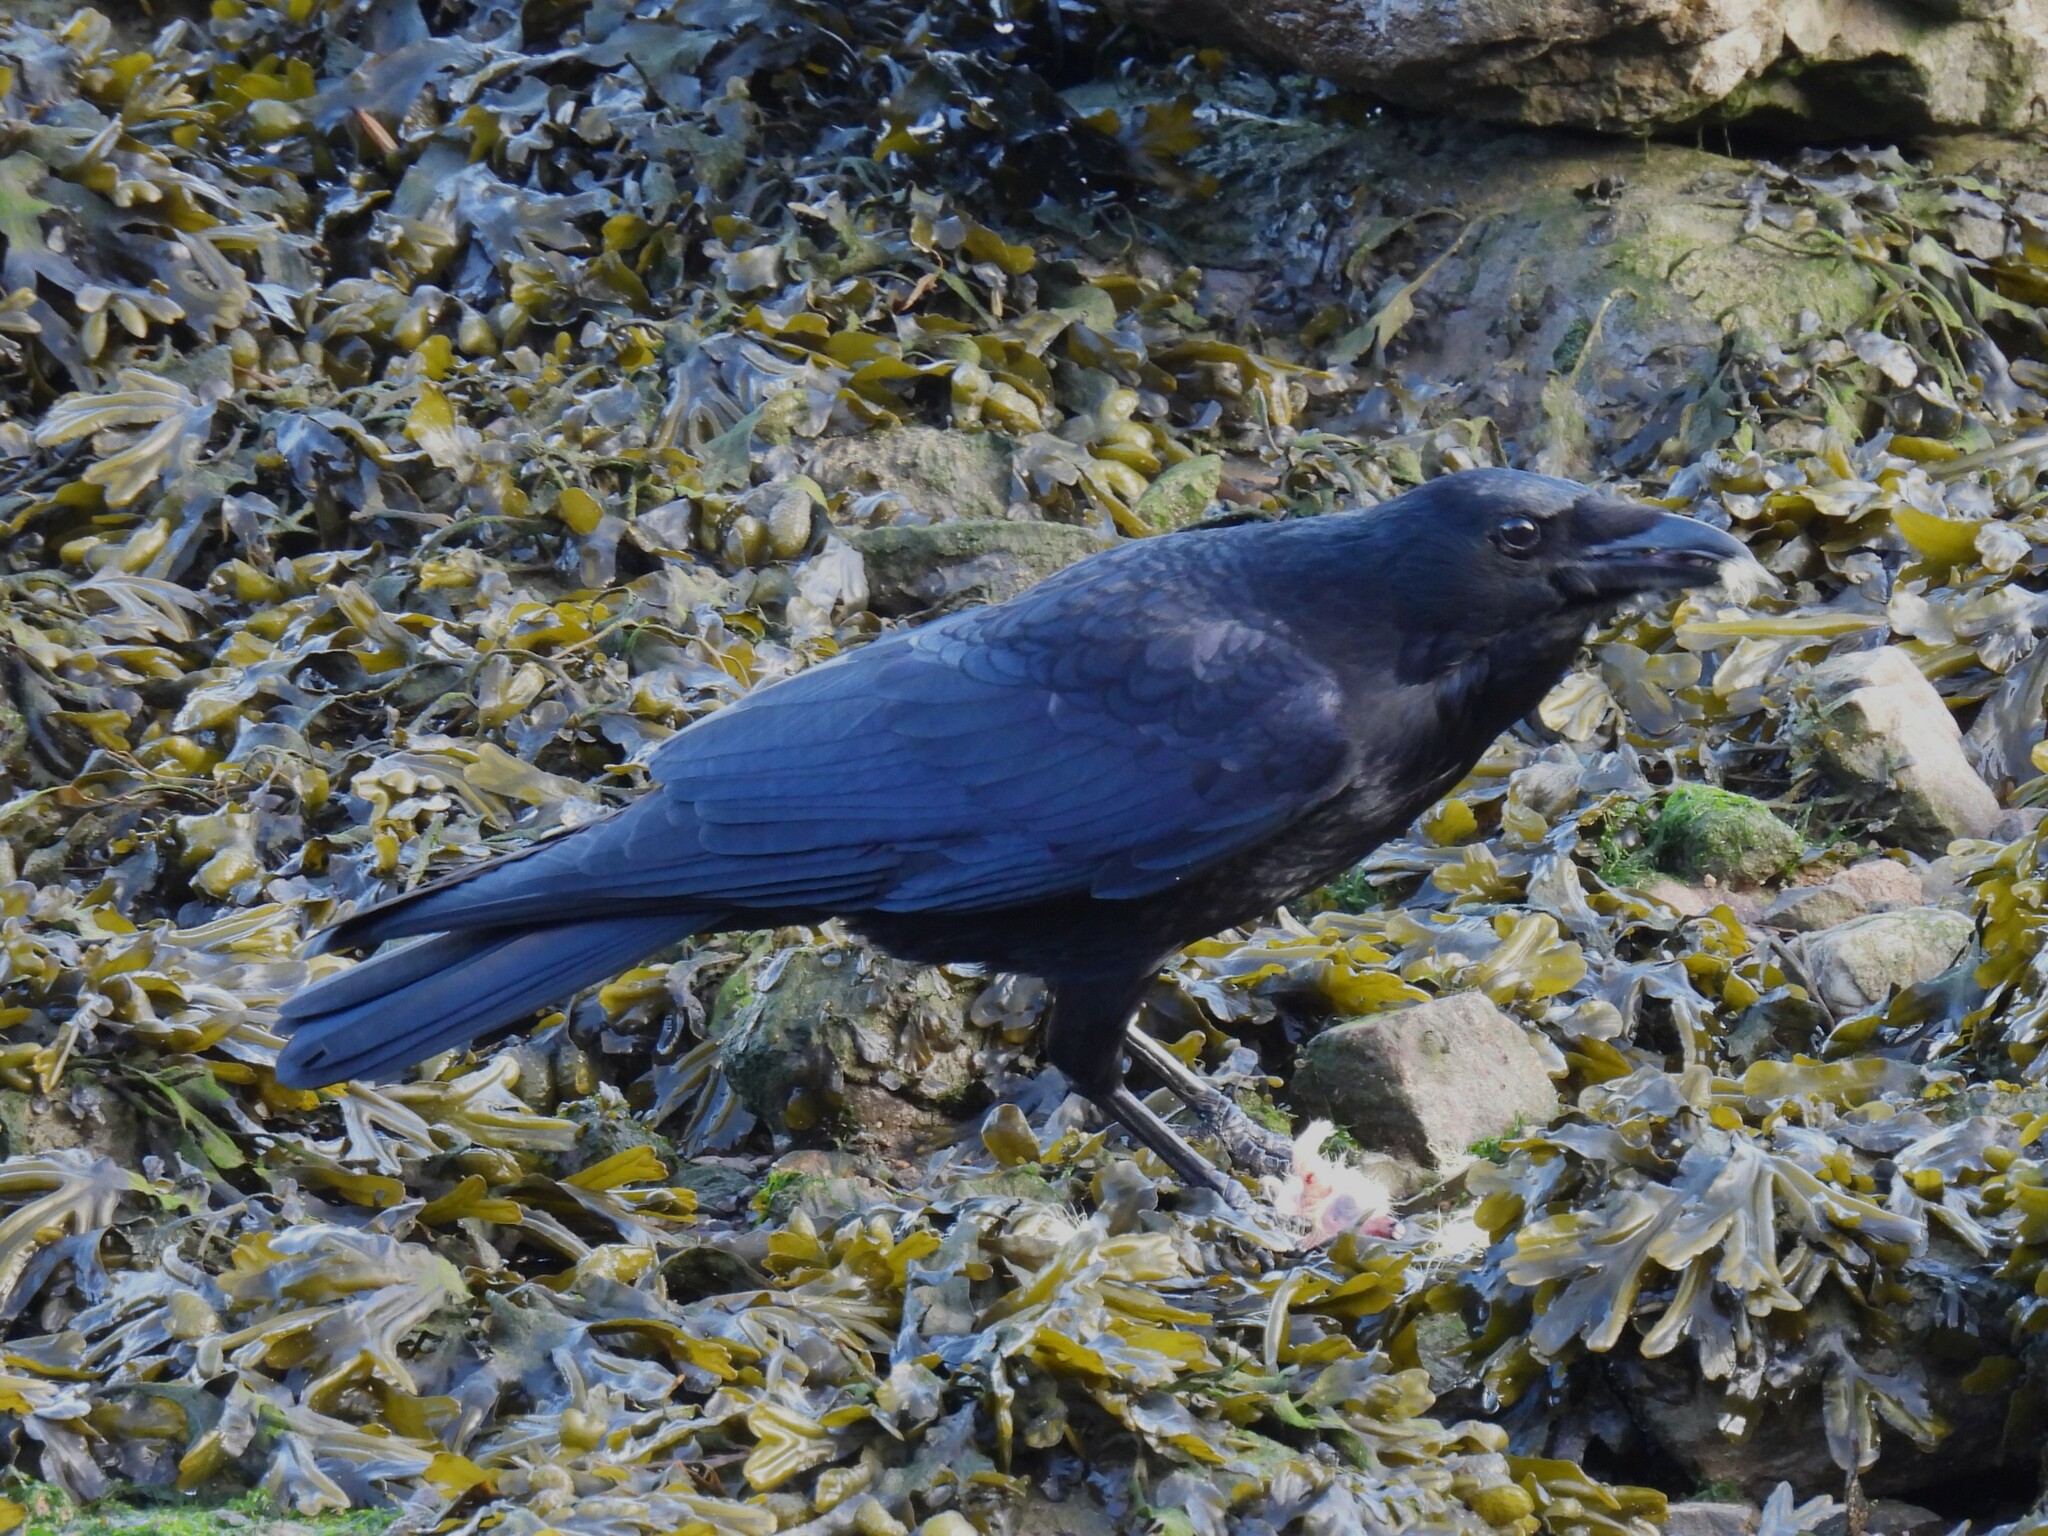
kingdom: Animalia
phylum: Chordata
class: Aves
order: Passeriformes
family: Corvidae
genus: Corvus
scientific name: Corvus corone
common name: Carrion crow
